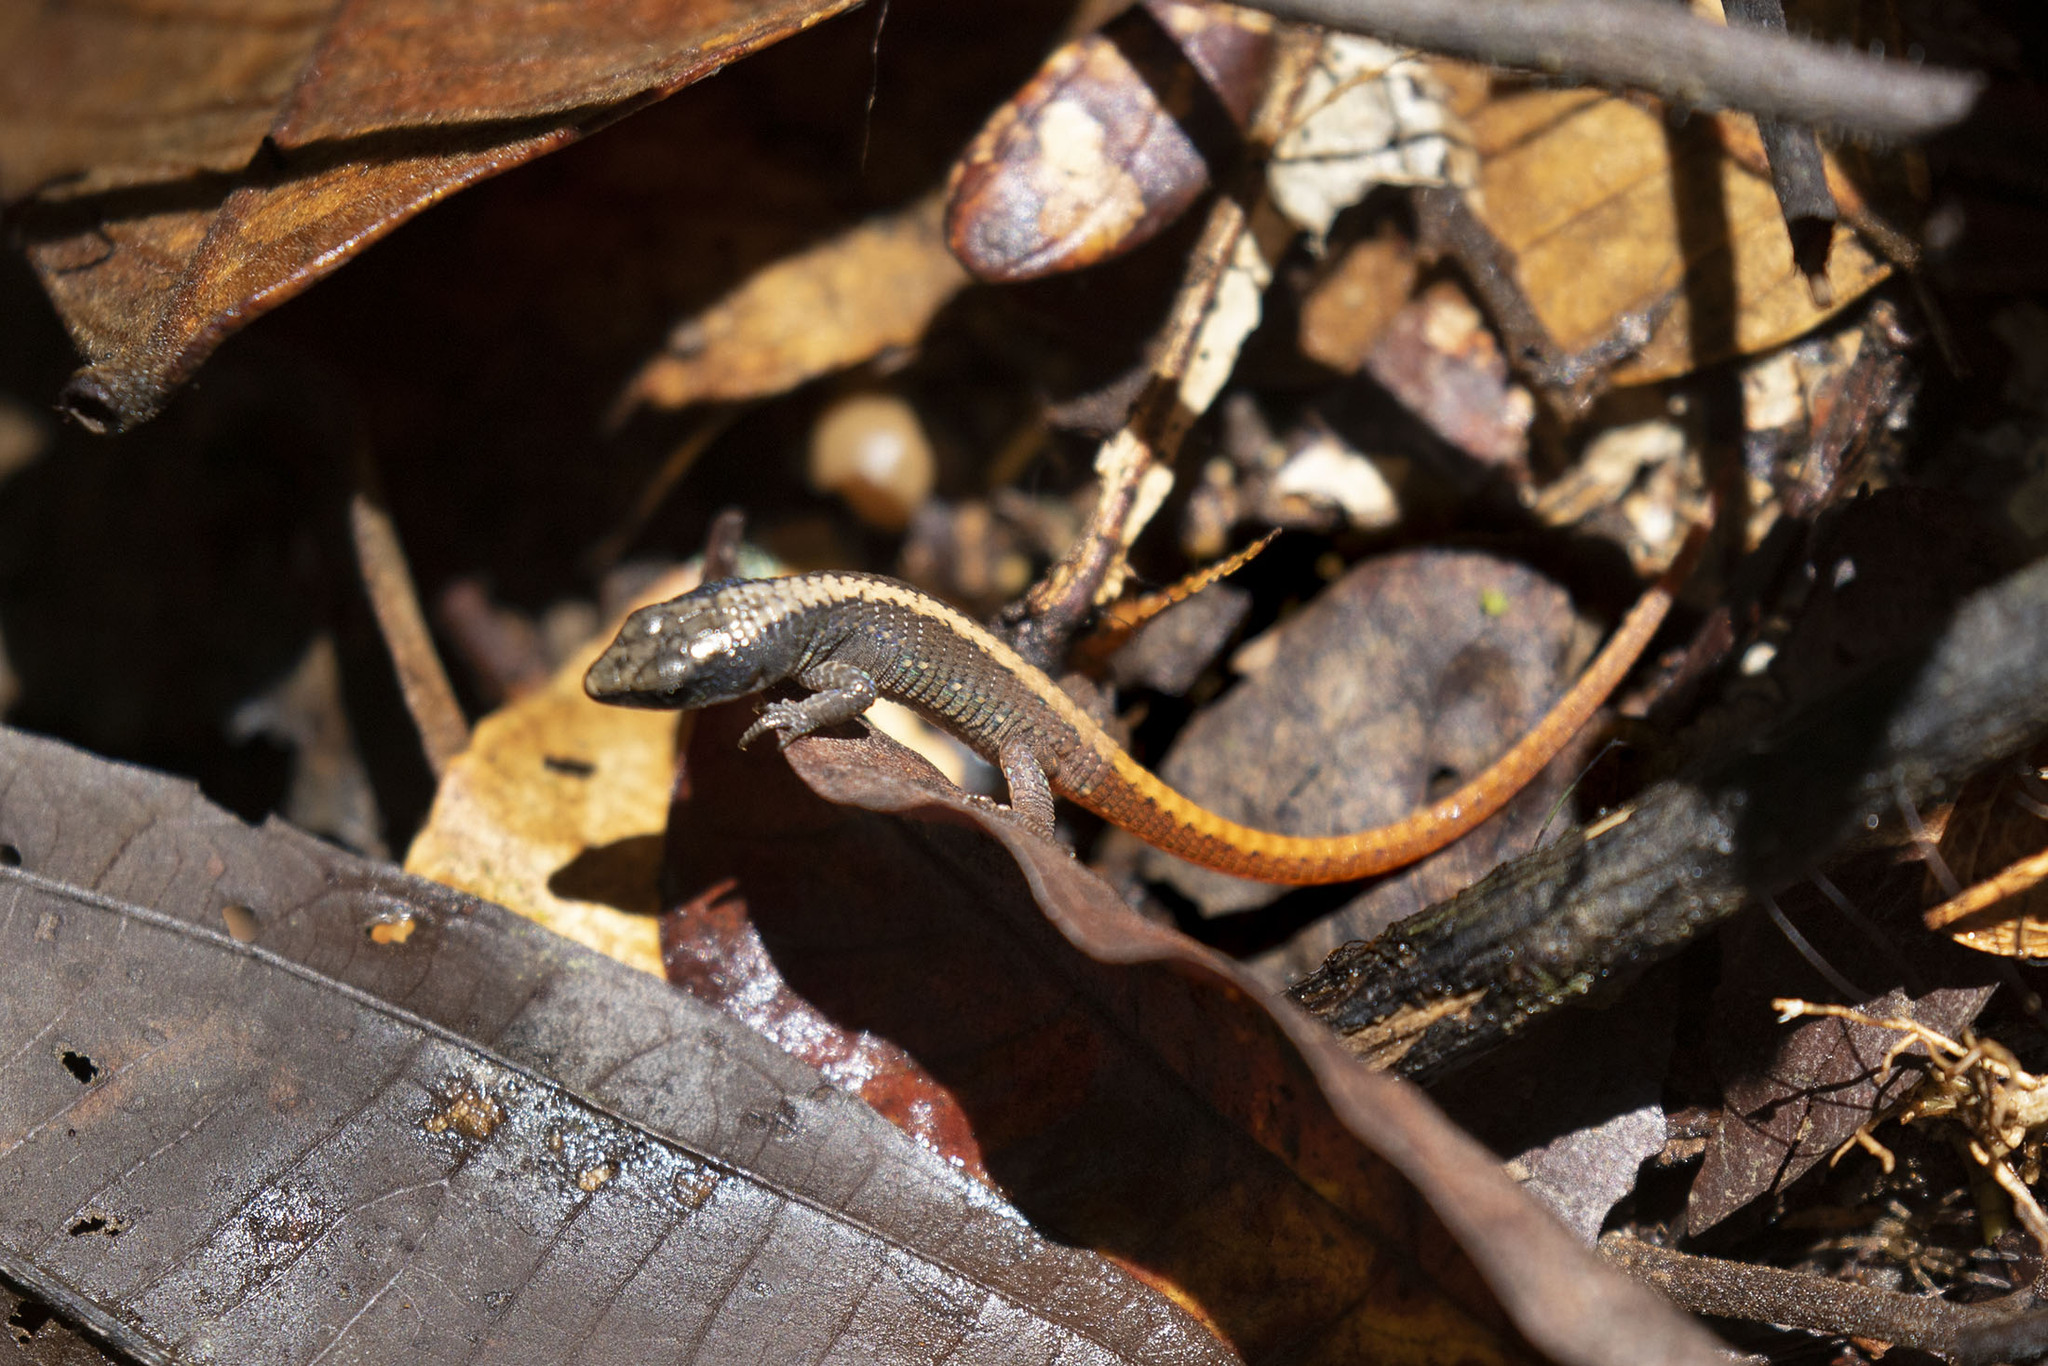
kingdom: Animalia
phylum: Chordata
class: Squamata
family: Gymnophthalmidae
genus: Arthrosaura
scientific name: Arthrosaura kockii
